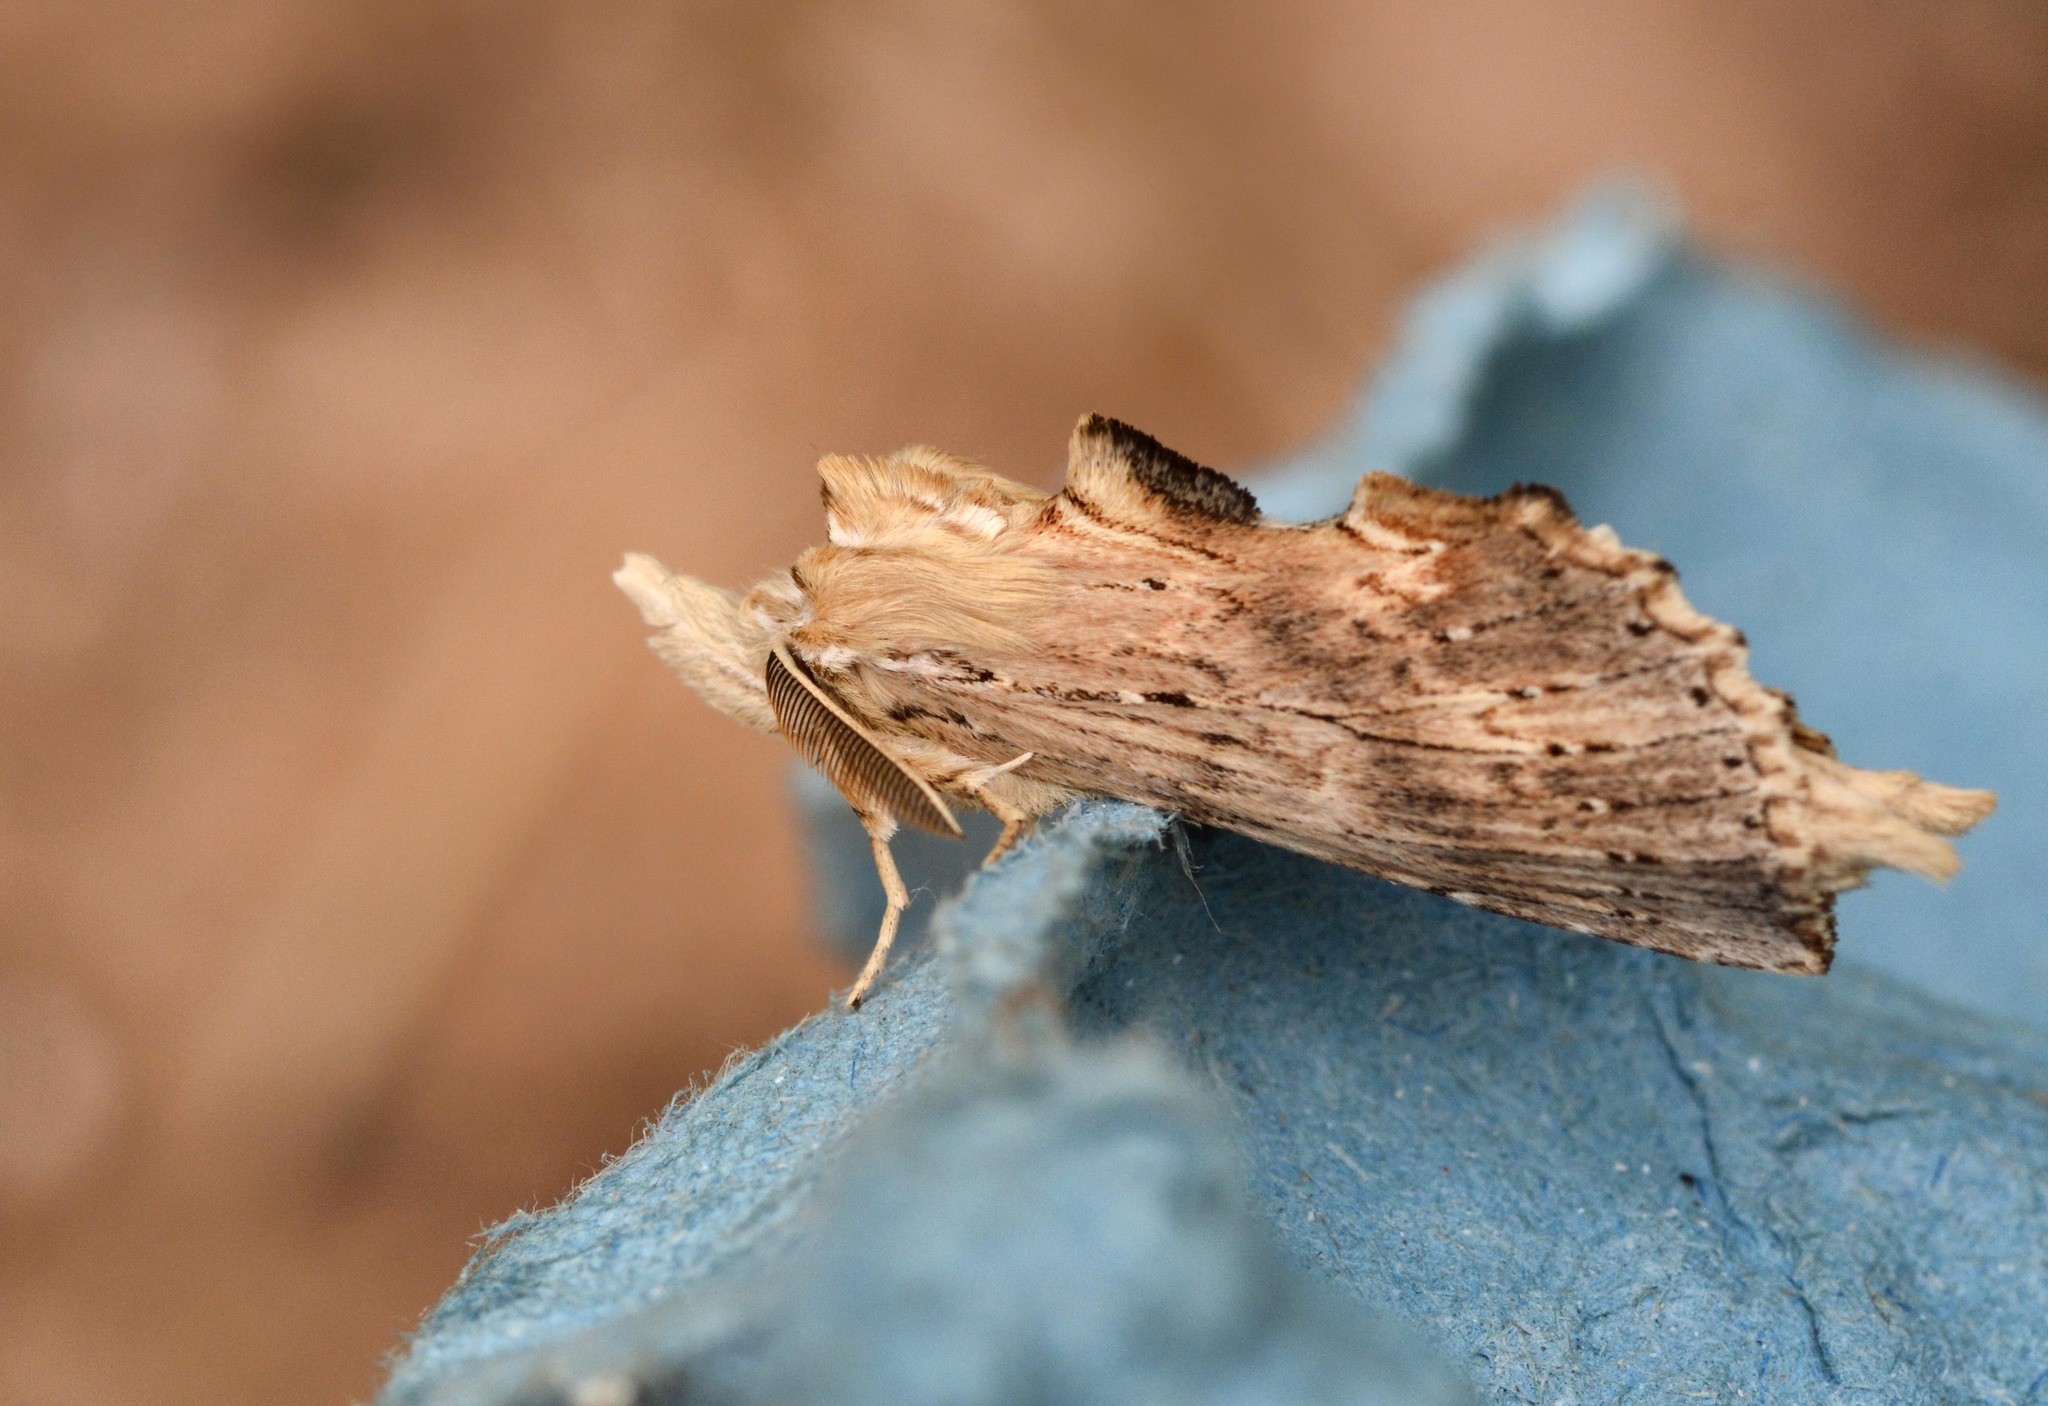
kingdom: Animalia
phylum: Arthropoda
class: Insecta
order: Lepidoptera
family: Notodontidae
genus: Pterostoma
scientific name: Pterostoma palpina
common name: Pale prominent
